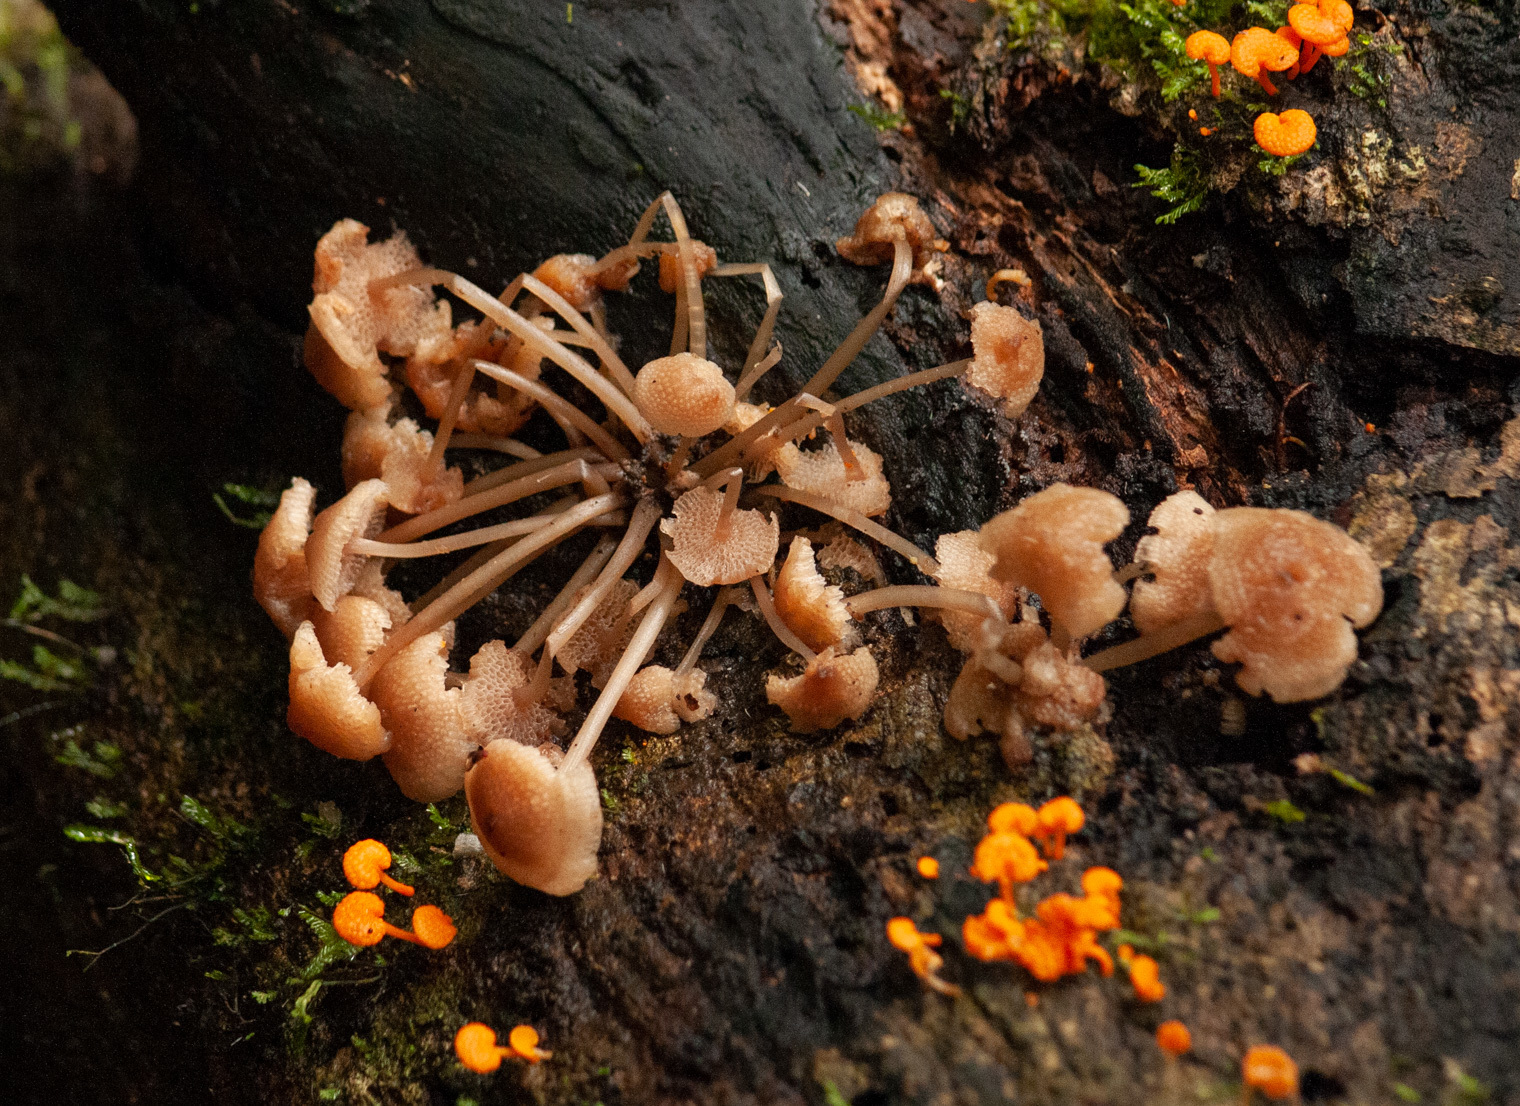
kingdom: Fungi
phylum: Basidiomycota
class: Agaricomycetes
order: Agaricales
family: Mycenaceae
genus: Filoboletus
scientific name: Filoboletus manipularis
